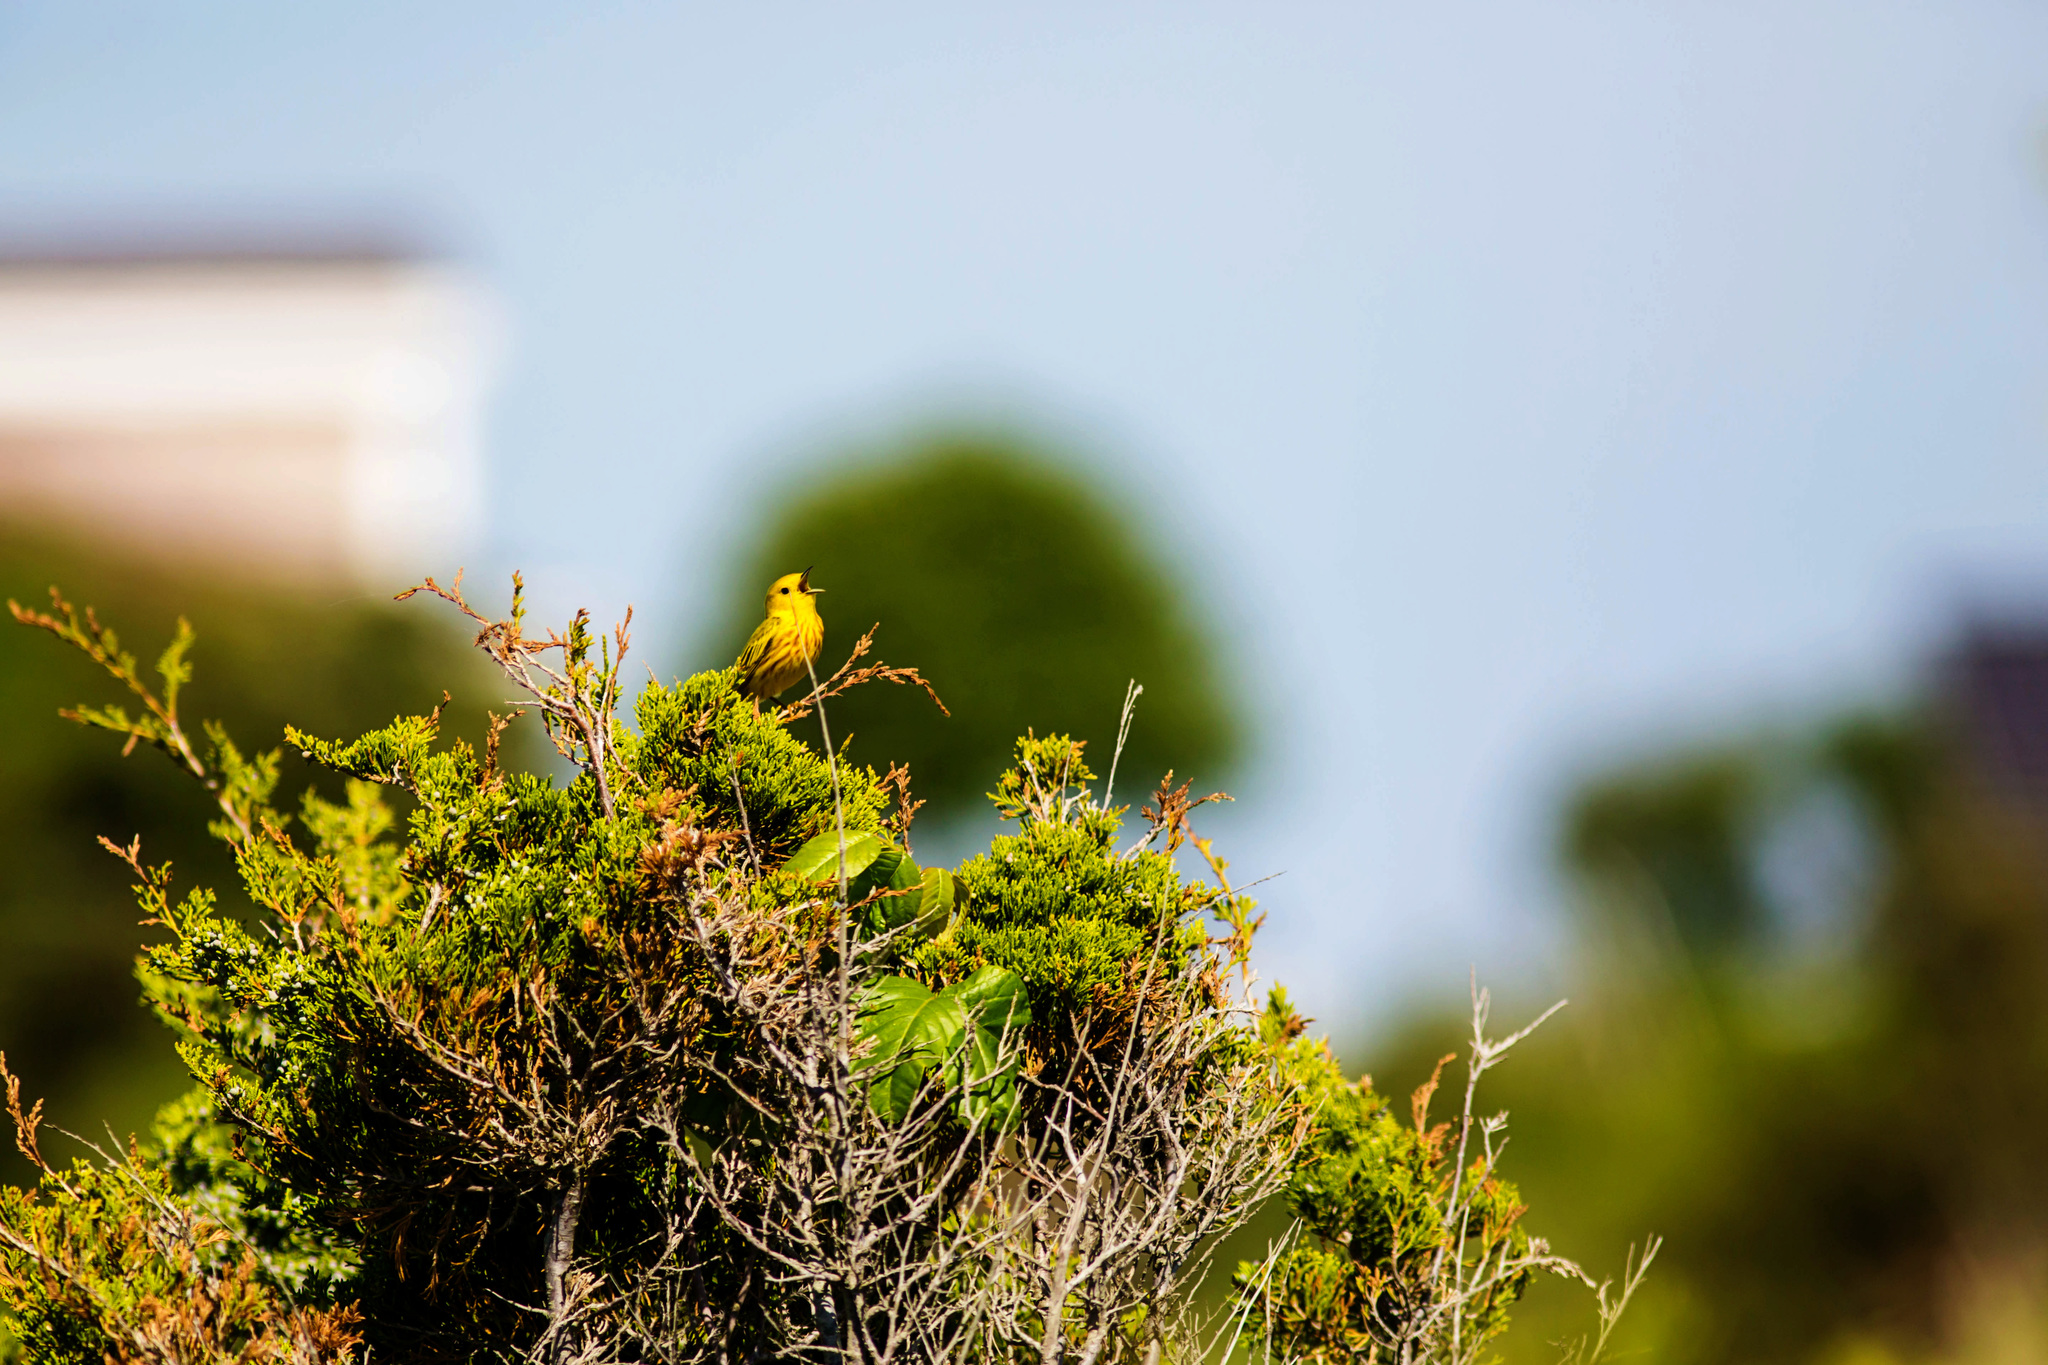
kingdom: Animalia
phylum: Chordata
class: Aves
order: Passeriformes
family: Parulidae
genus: Setophaga
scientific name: Setophaga petechia
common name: Yellow warbler
